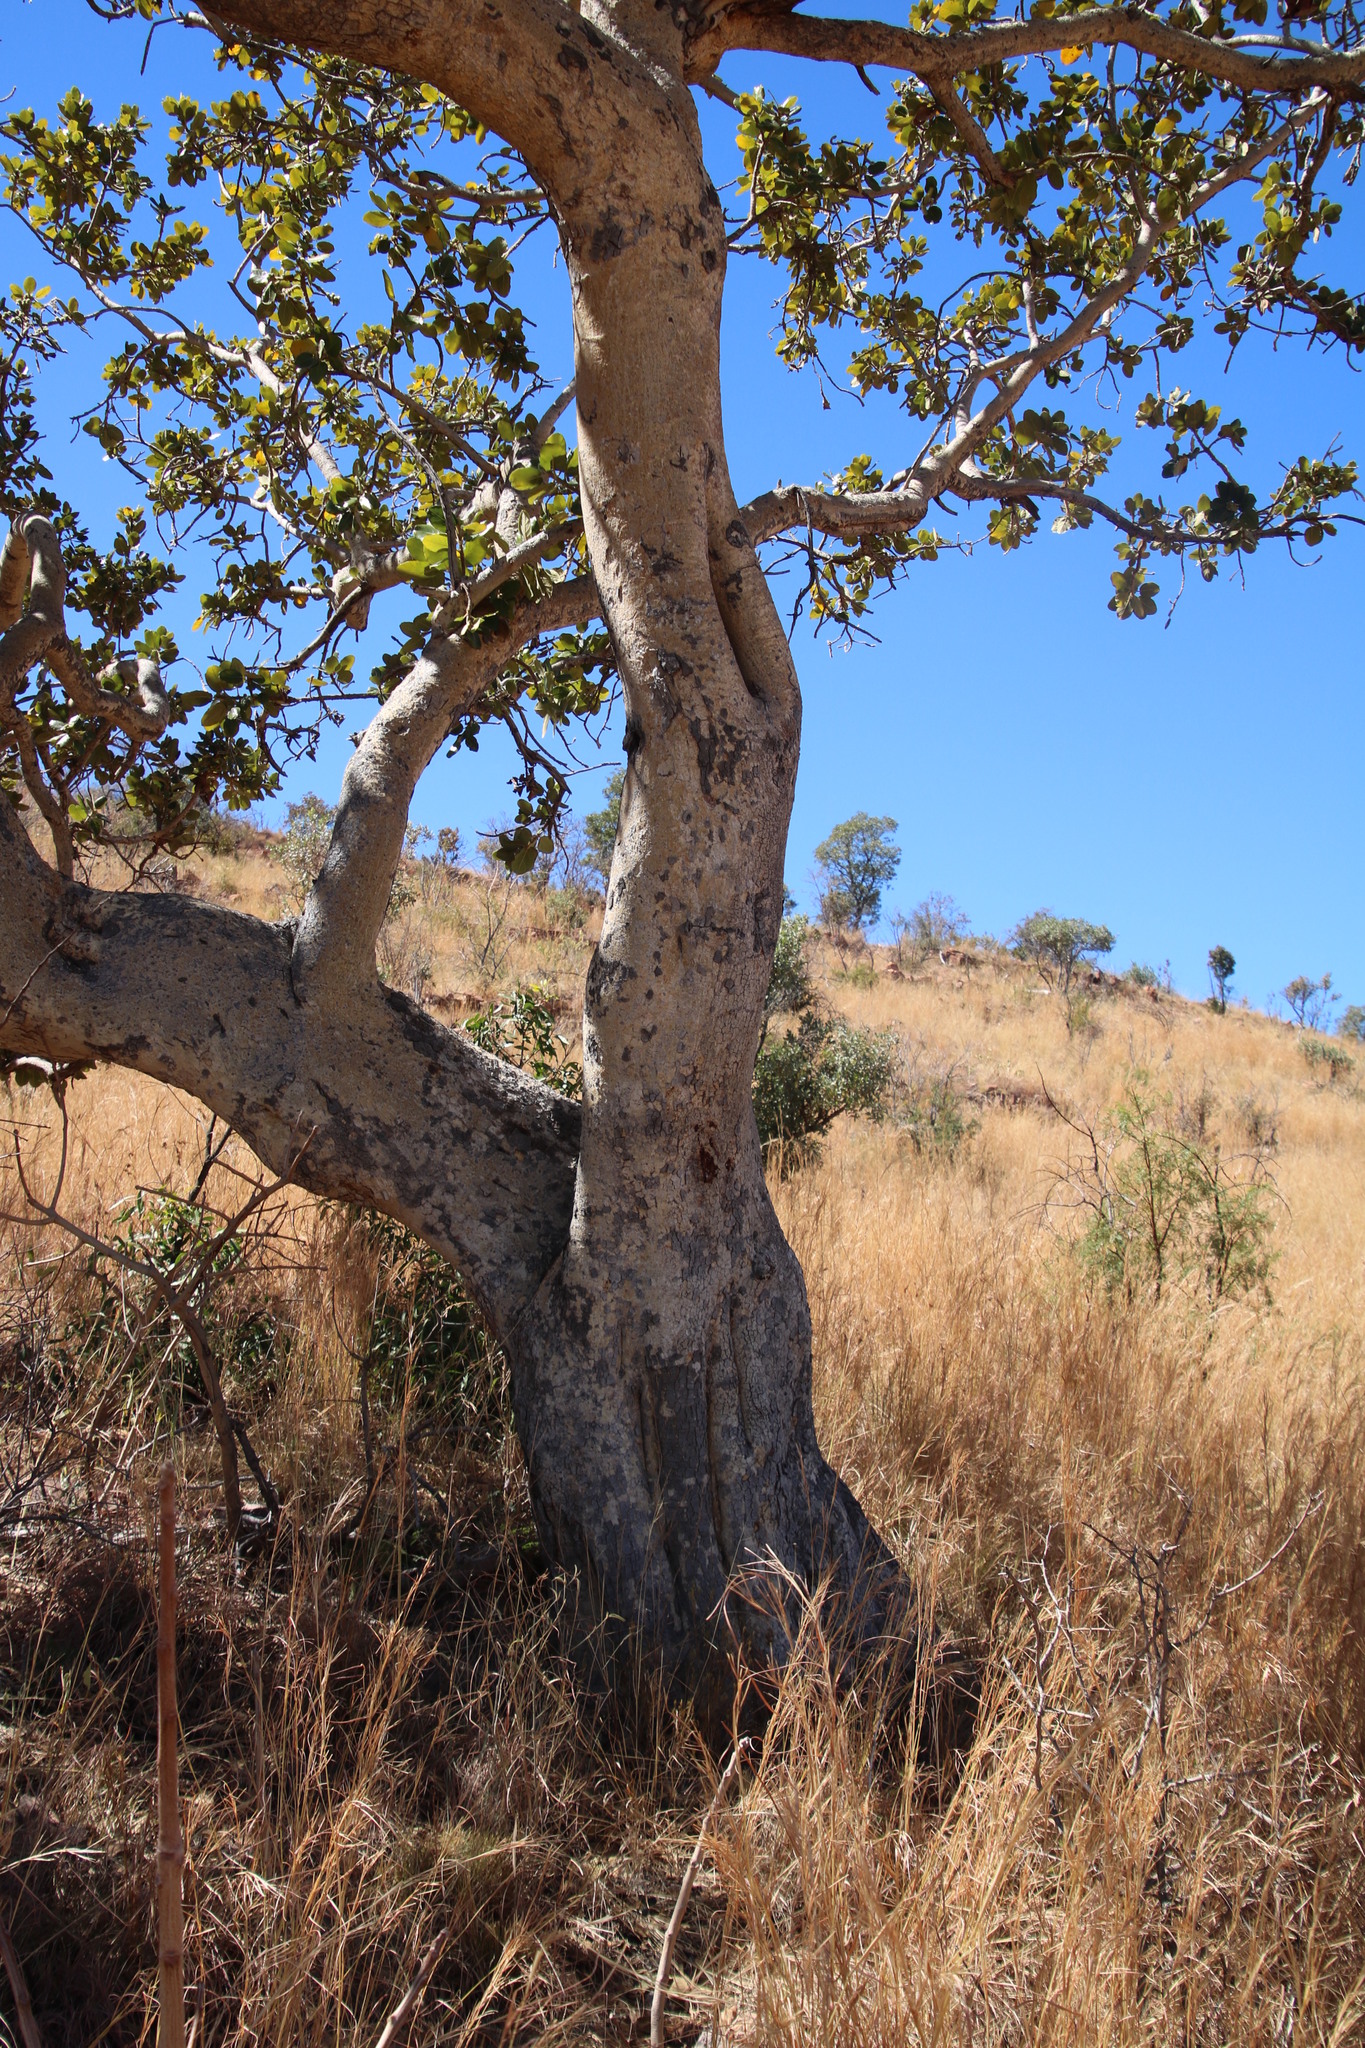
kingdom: Plantae
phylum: Tracheophyta
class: Magnoliopsida
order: Rosales
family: Moraceae
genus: Ficus
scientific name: Ficus glumosa
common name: Hairy rock fig
